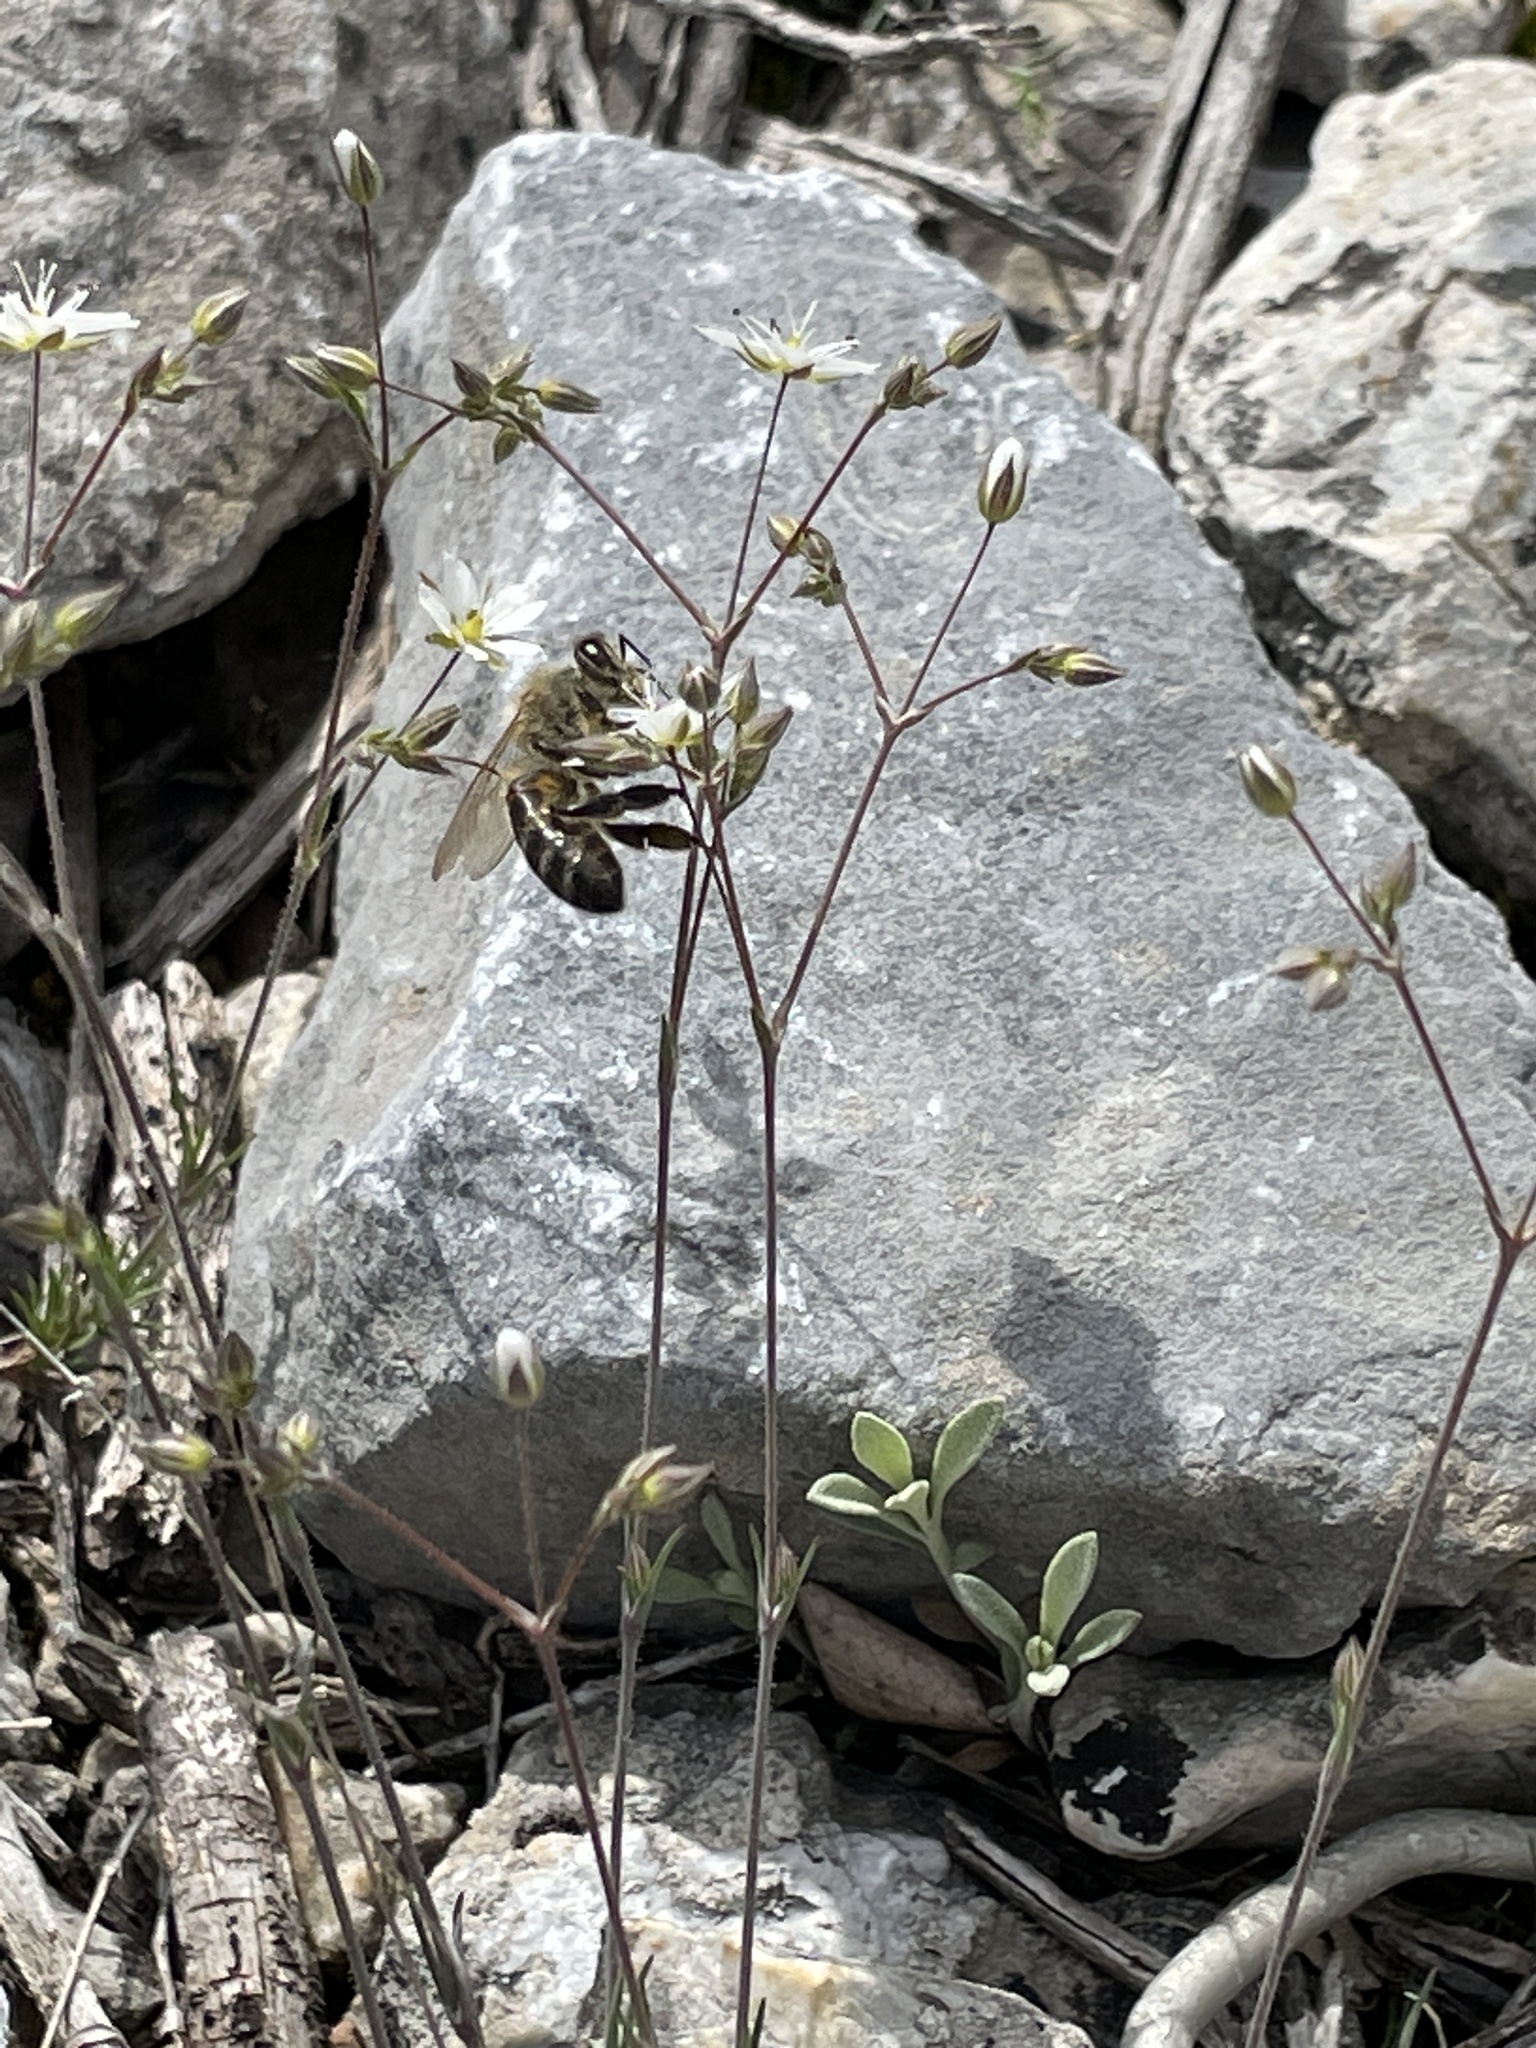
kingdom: Animalia
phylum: Arthropoda
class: Insecta
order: Hymenoptera
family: Apidae
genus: Apis
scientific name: Apis mellifera
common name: Honey bee
